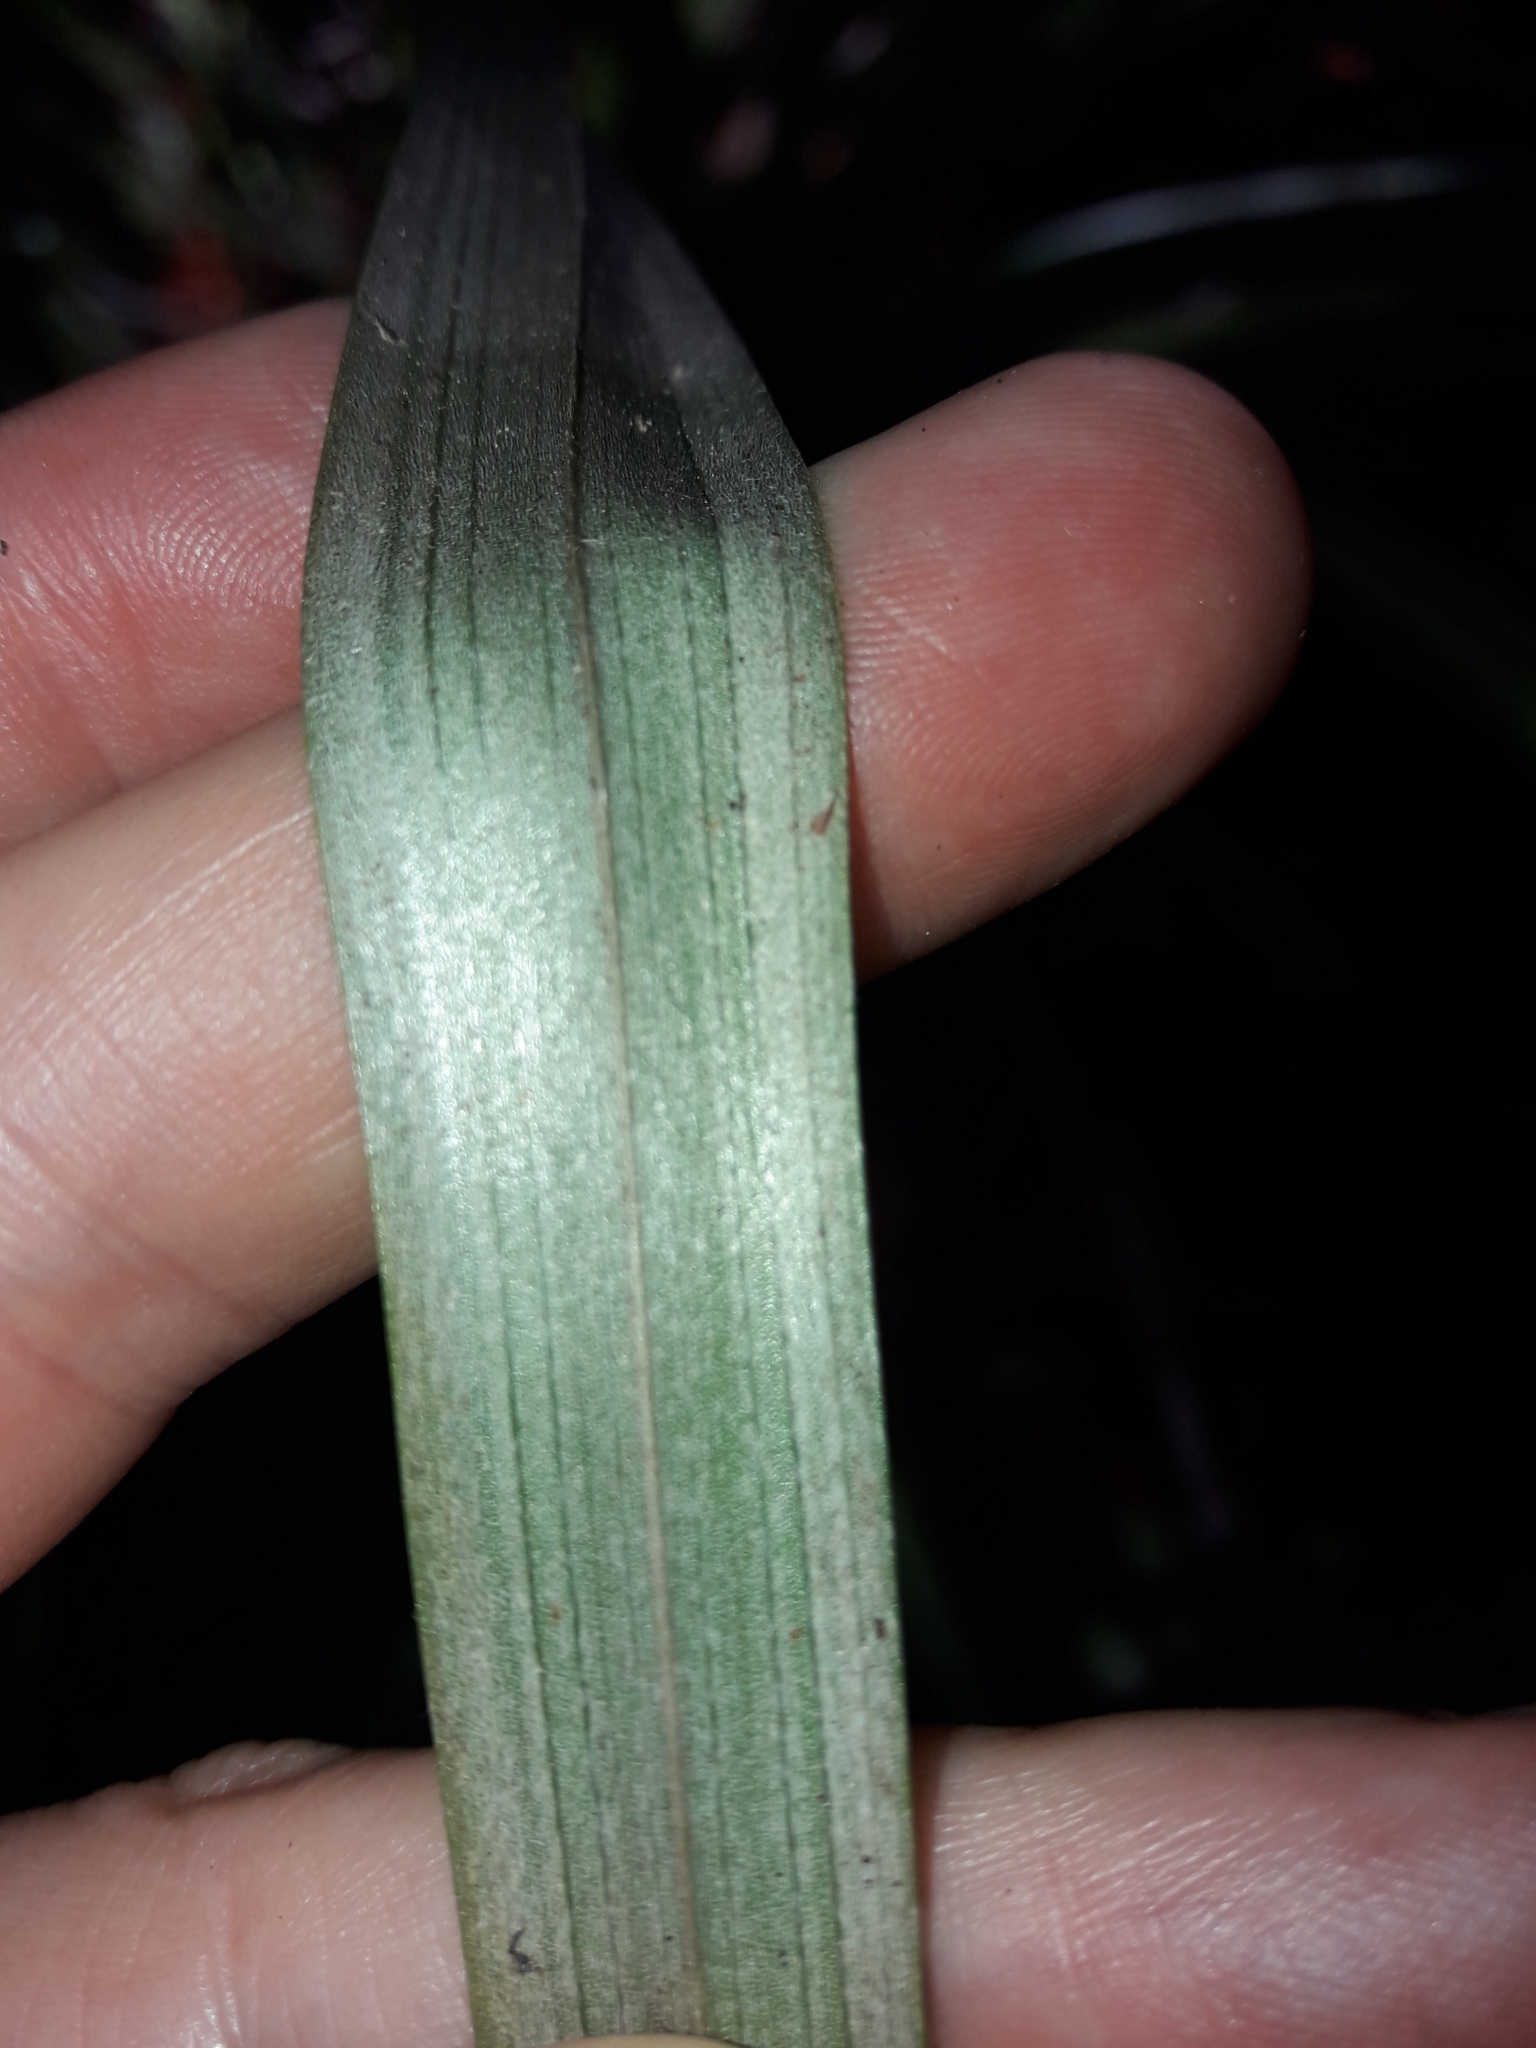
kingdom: Plantae
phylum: Tracheophyta
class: Liliopsida
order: Asparagales
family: Asteliaceae
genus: Astelia
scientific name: Astelia trinervia
